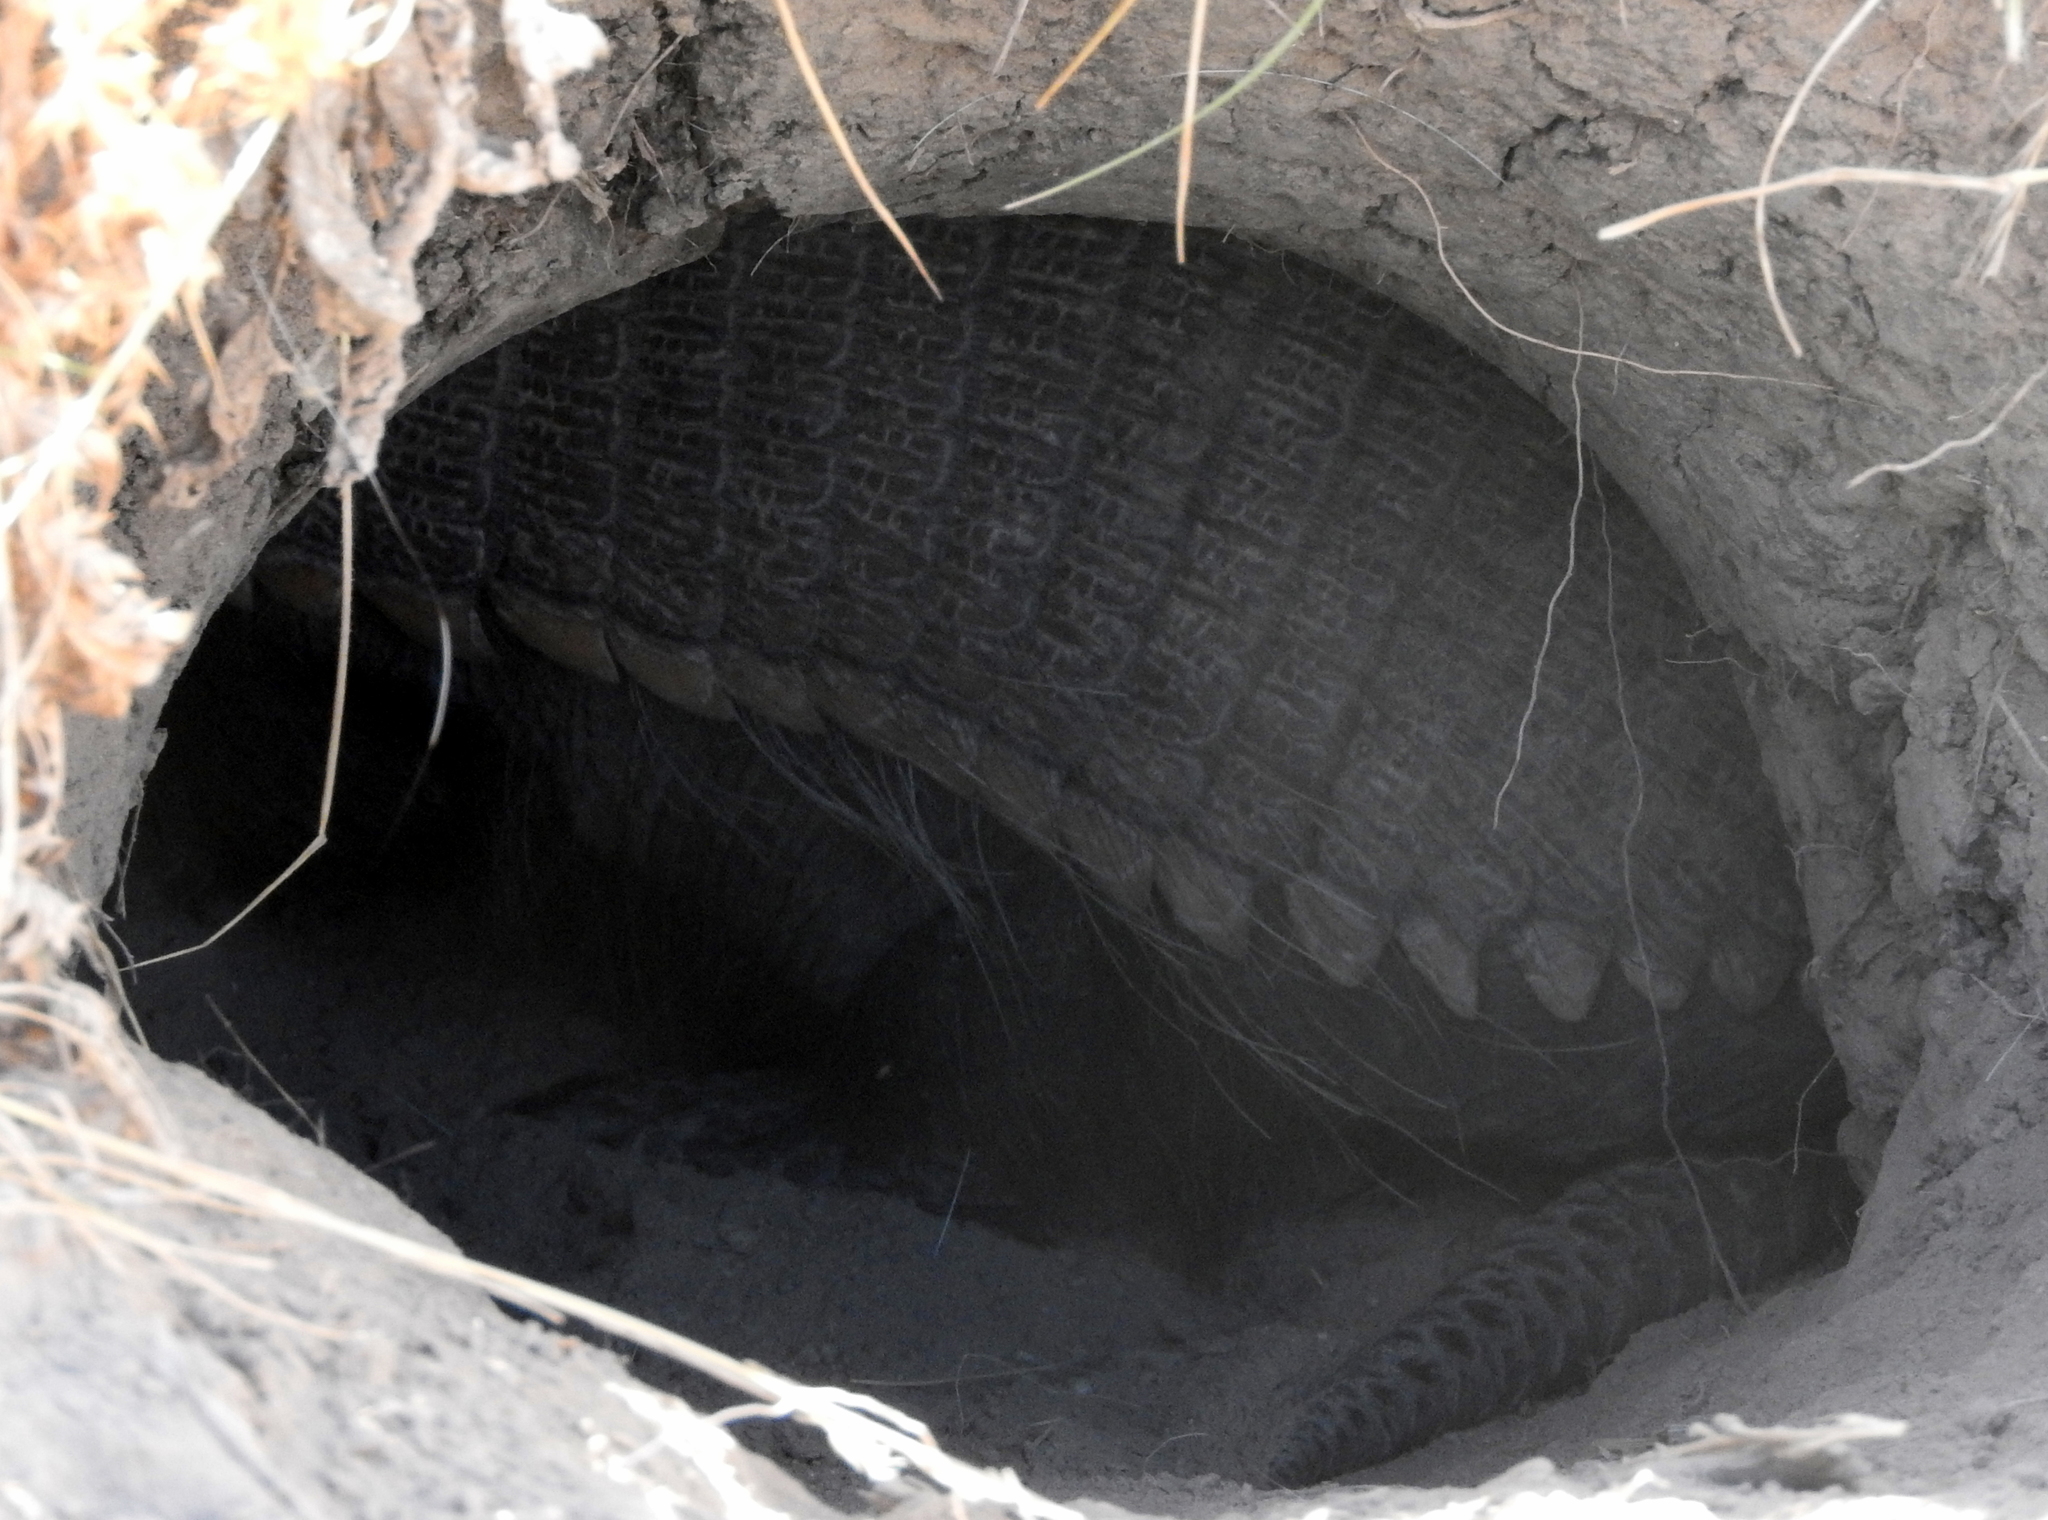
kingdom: Animalia
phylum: Chordata
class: Mammalia
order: Cingulata
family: Dasypodidae
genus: Chaetophractus
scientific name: Chaetophractus villosus
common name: Big hairy armadillo
